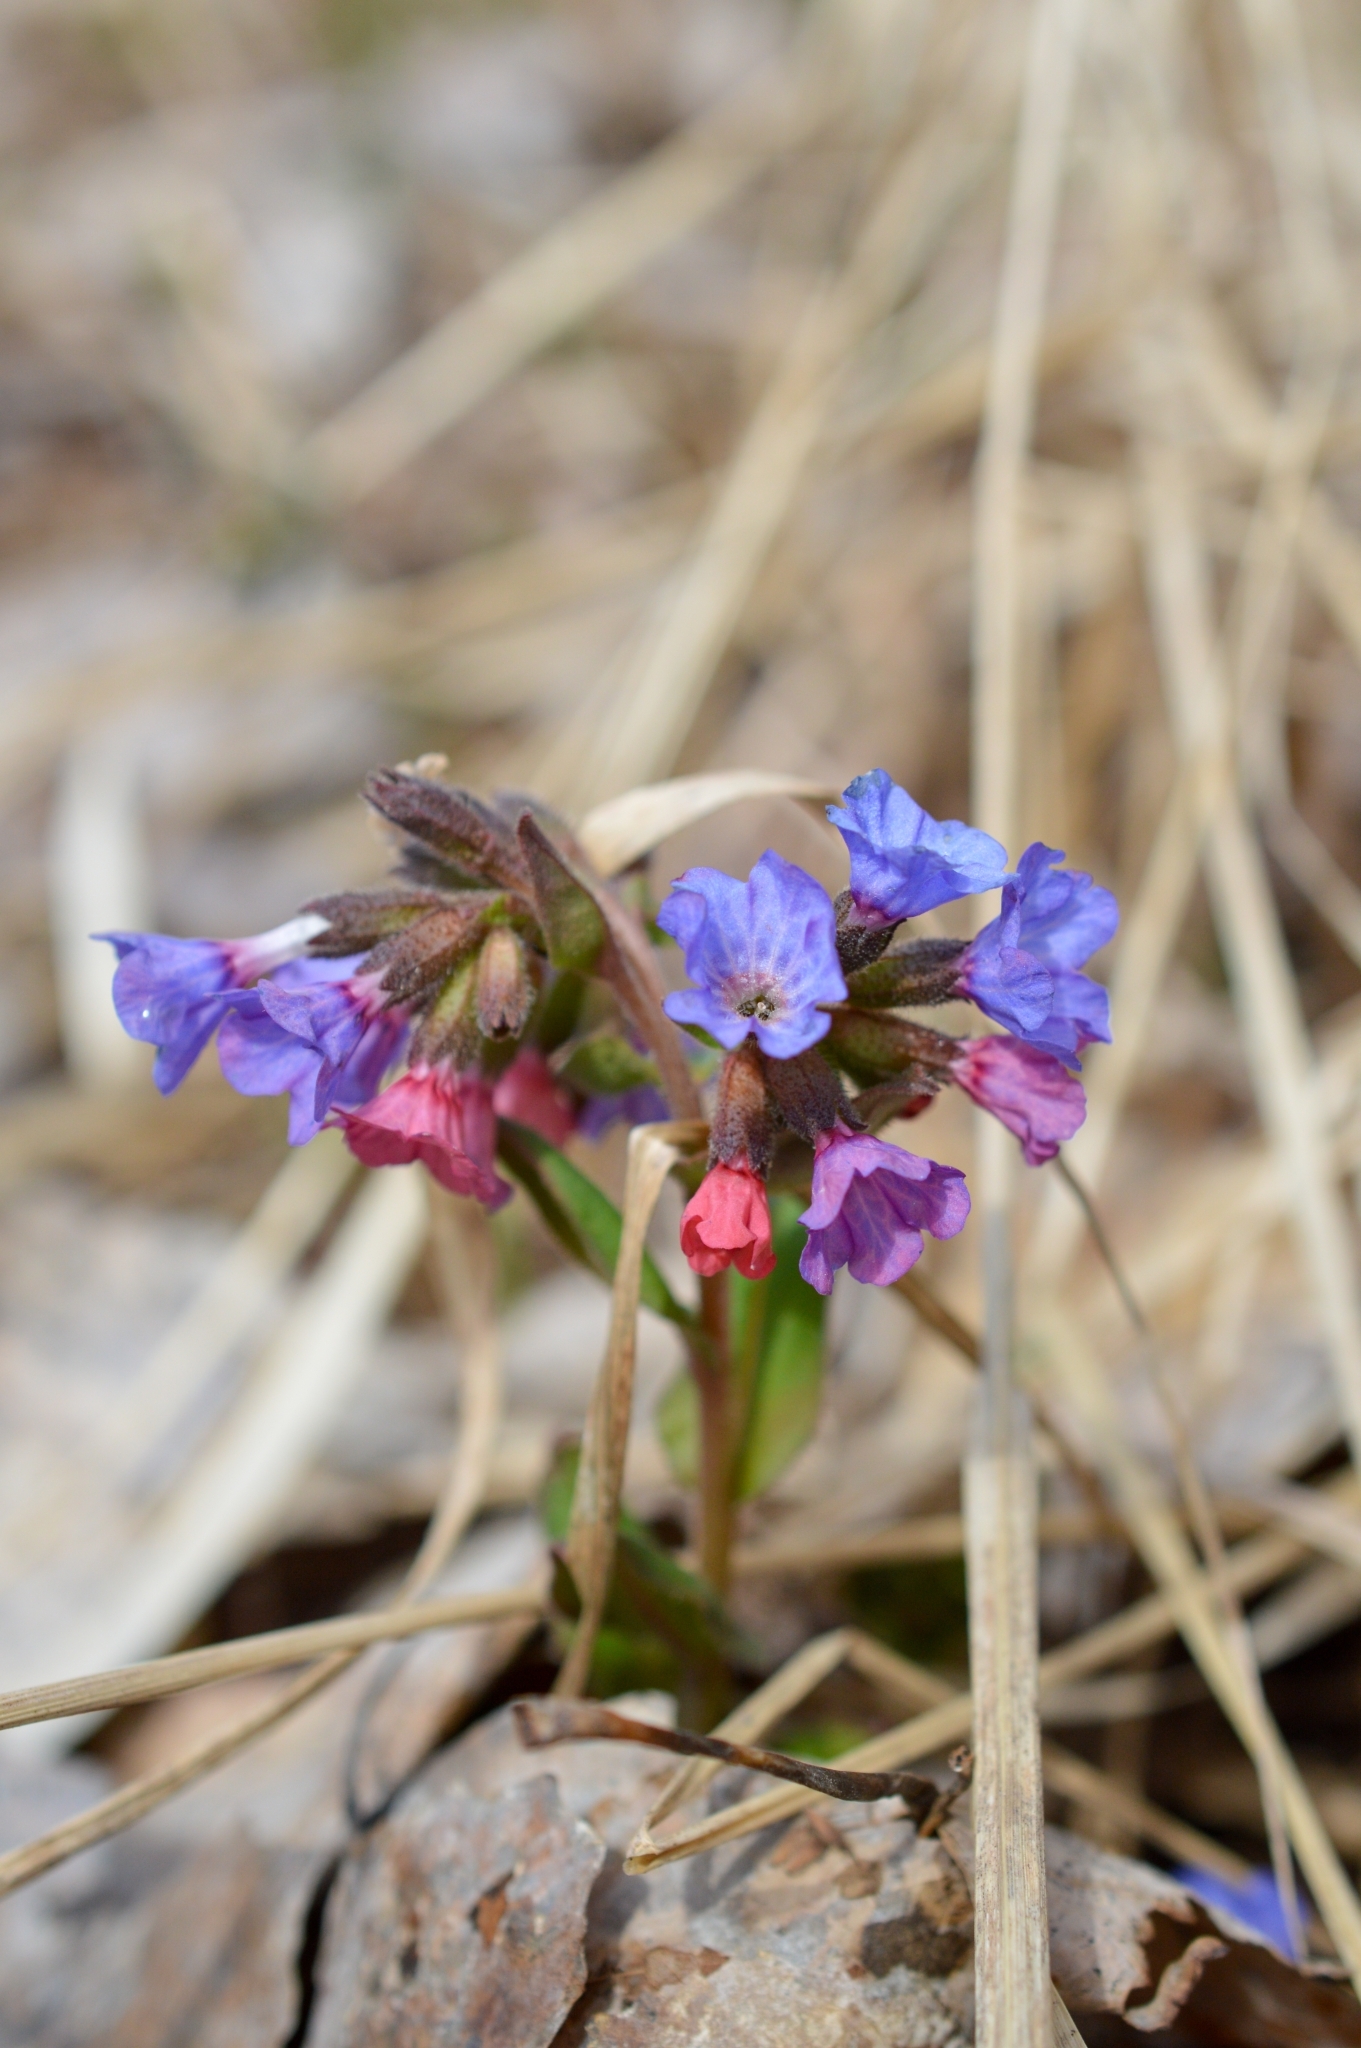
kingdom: Plantae
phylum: Tracheophyta
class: Magnoliopsida
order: Boraginales
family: Boraginaceae
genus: Pulmonaria
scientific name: Pulmonaria obscura
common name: Suffolk lungwort
